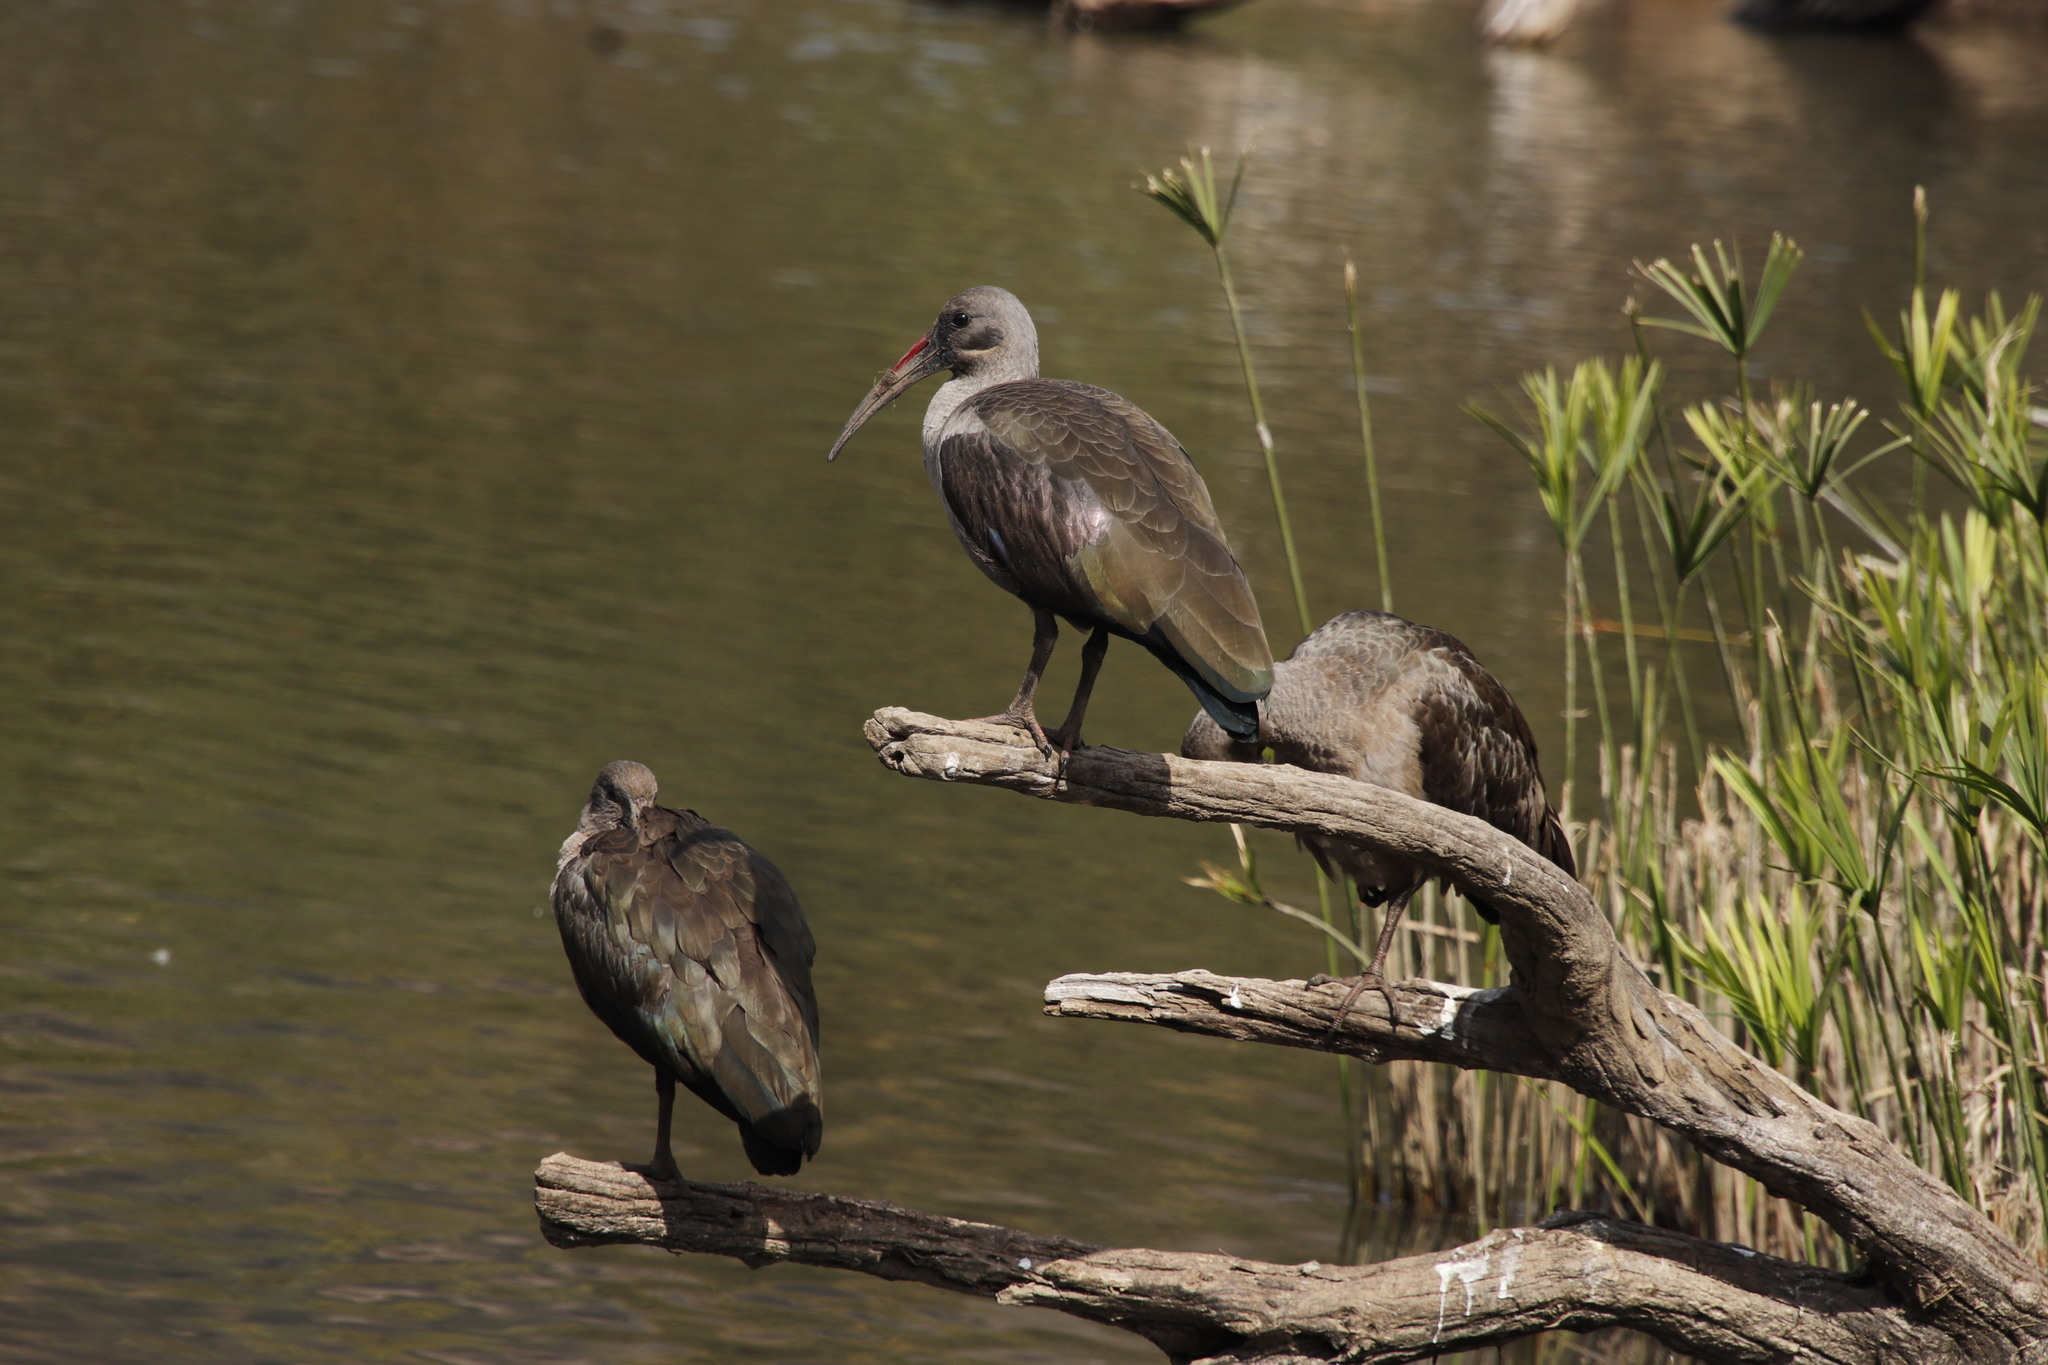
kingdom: Animalia
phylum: Chordata
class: Aves
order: Pelecaniformes
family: Threskiornithidae
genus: Bostrychia
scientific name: Bostrychia hagedash
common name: Hadada ibis
